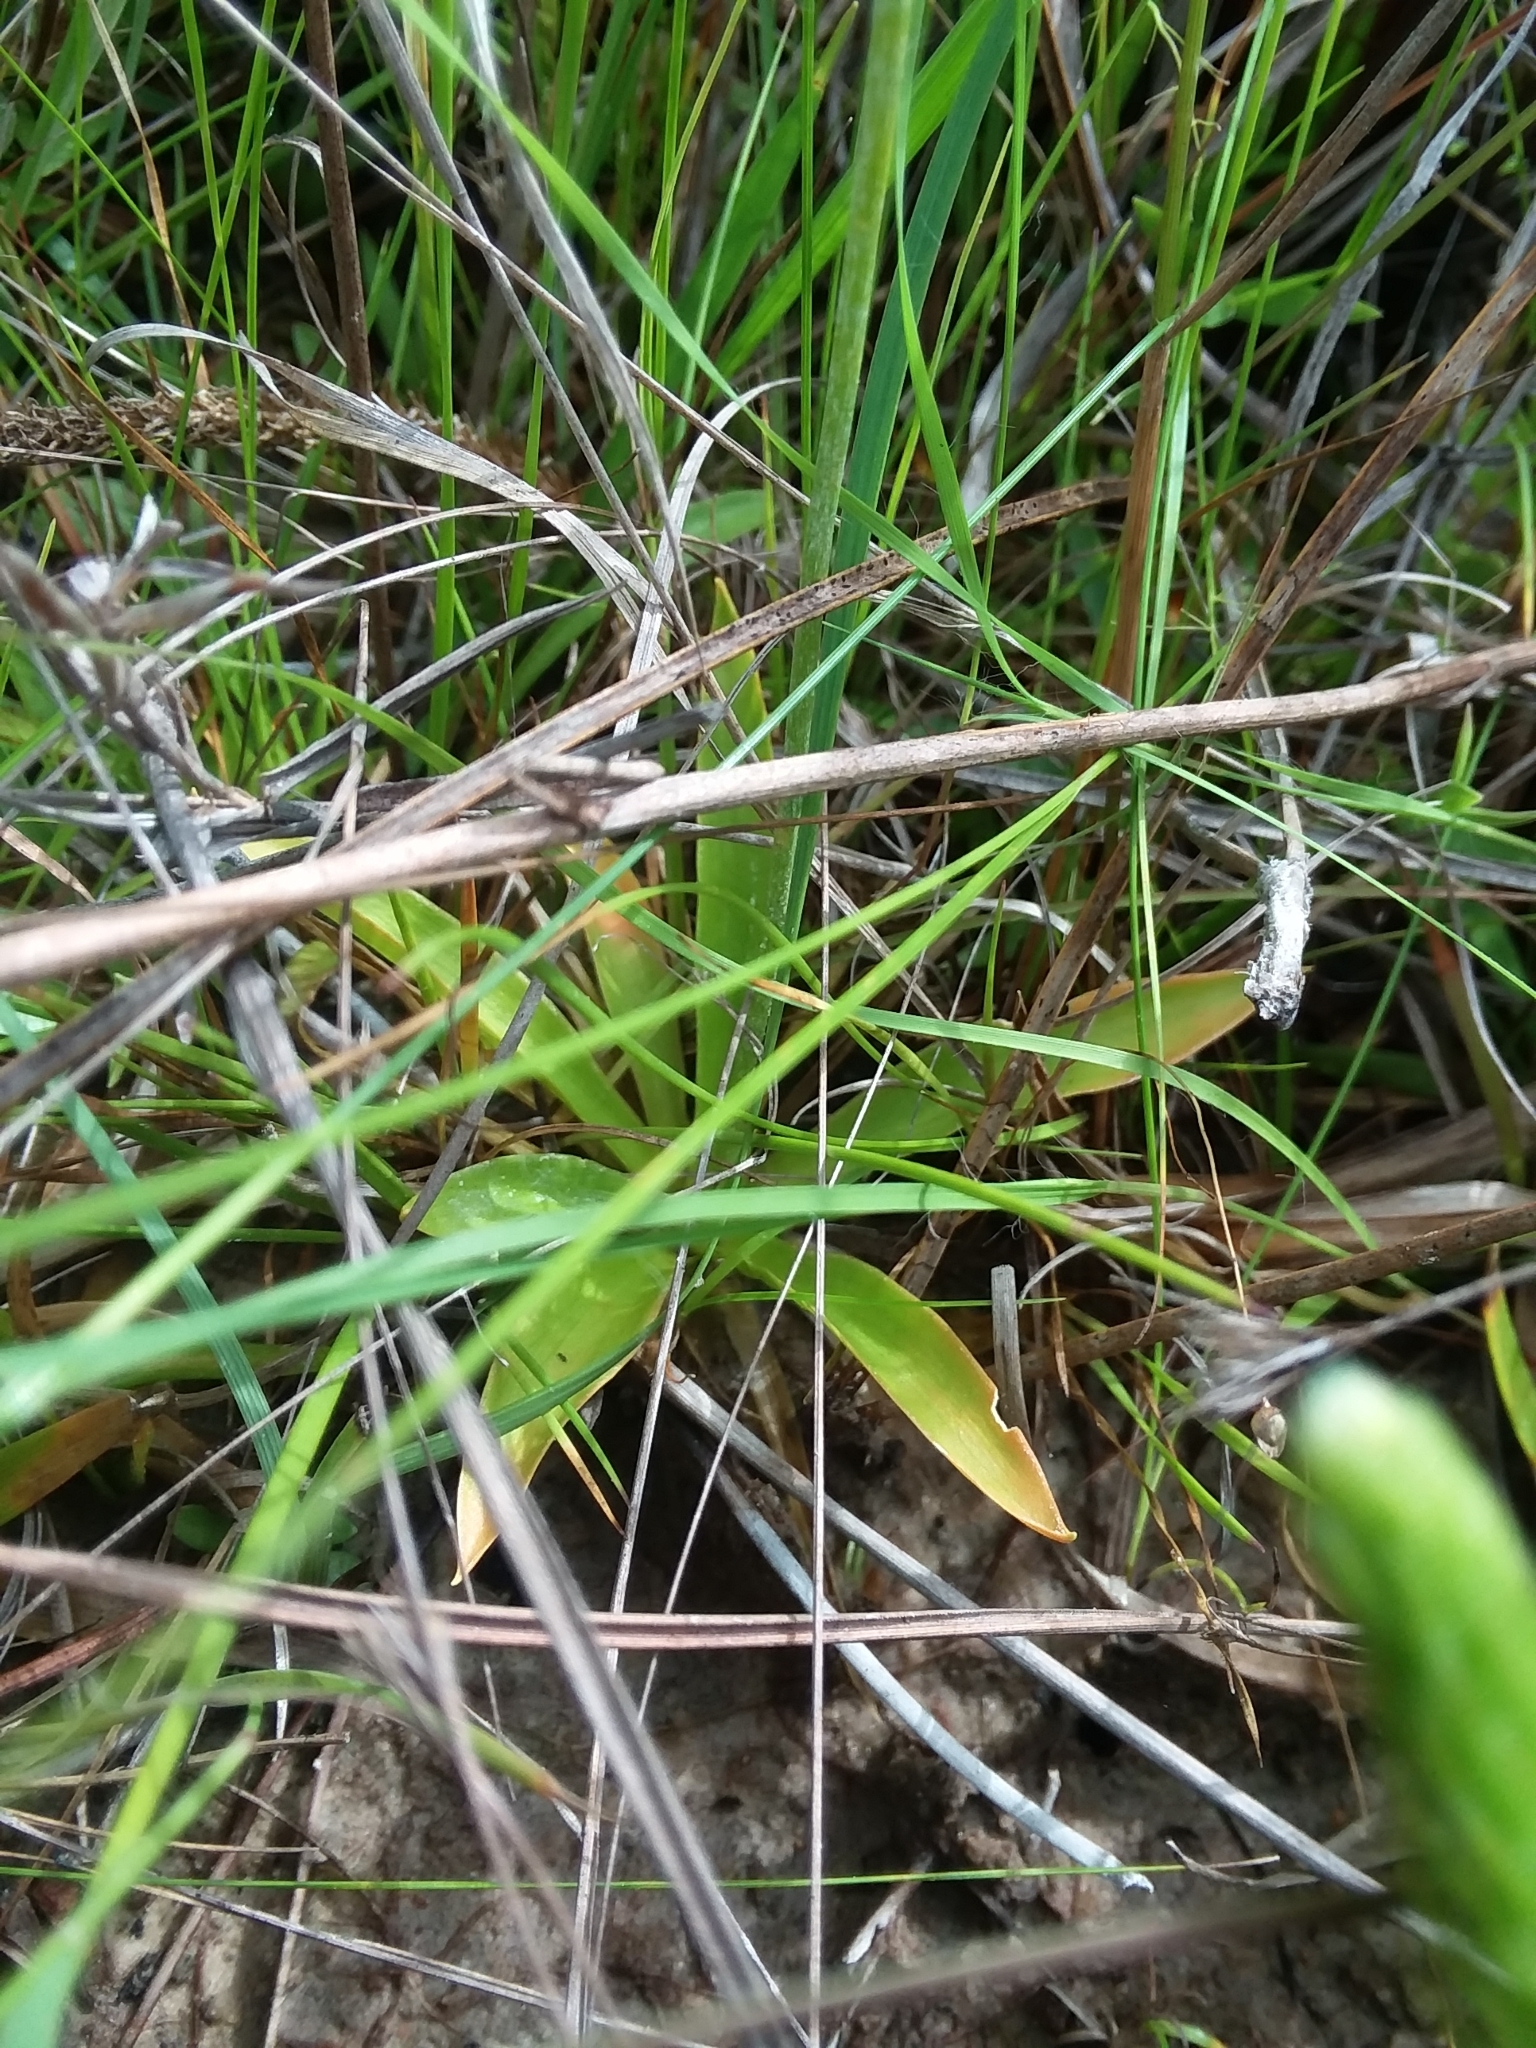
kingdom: Plantae
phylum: Tracheophyta
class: Liliopsida
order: Dioscoreales
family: Nartheciaceae
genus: Aletris
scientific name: Aletris aurea
